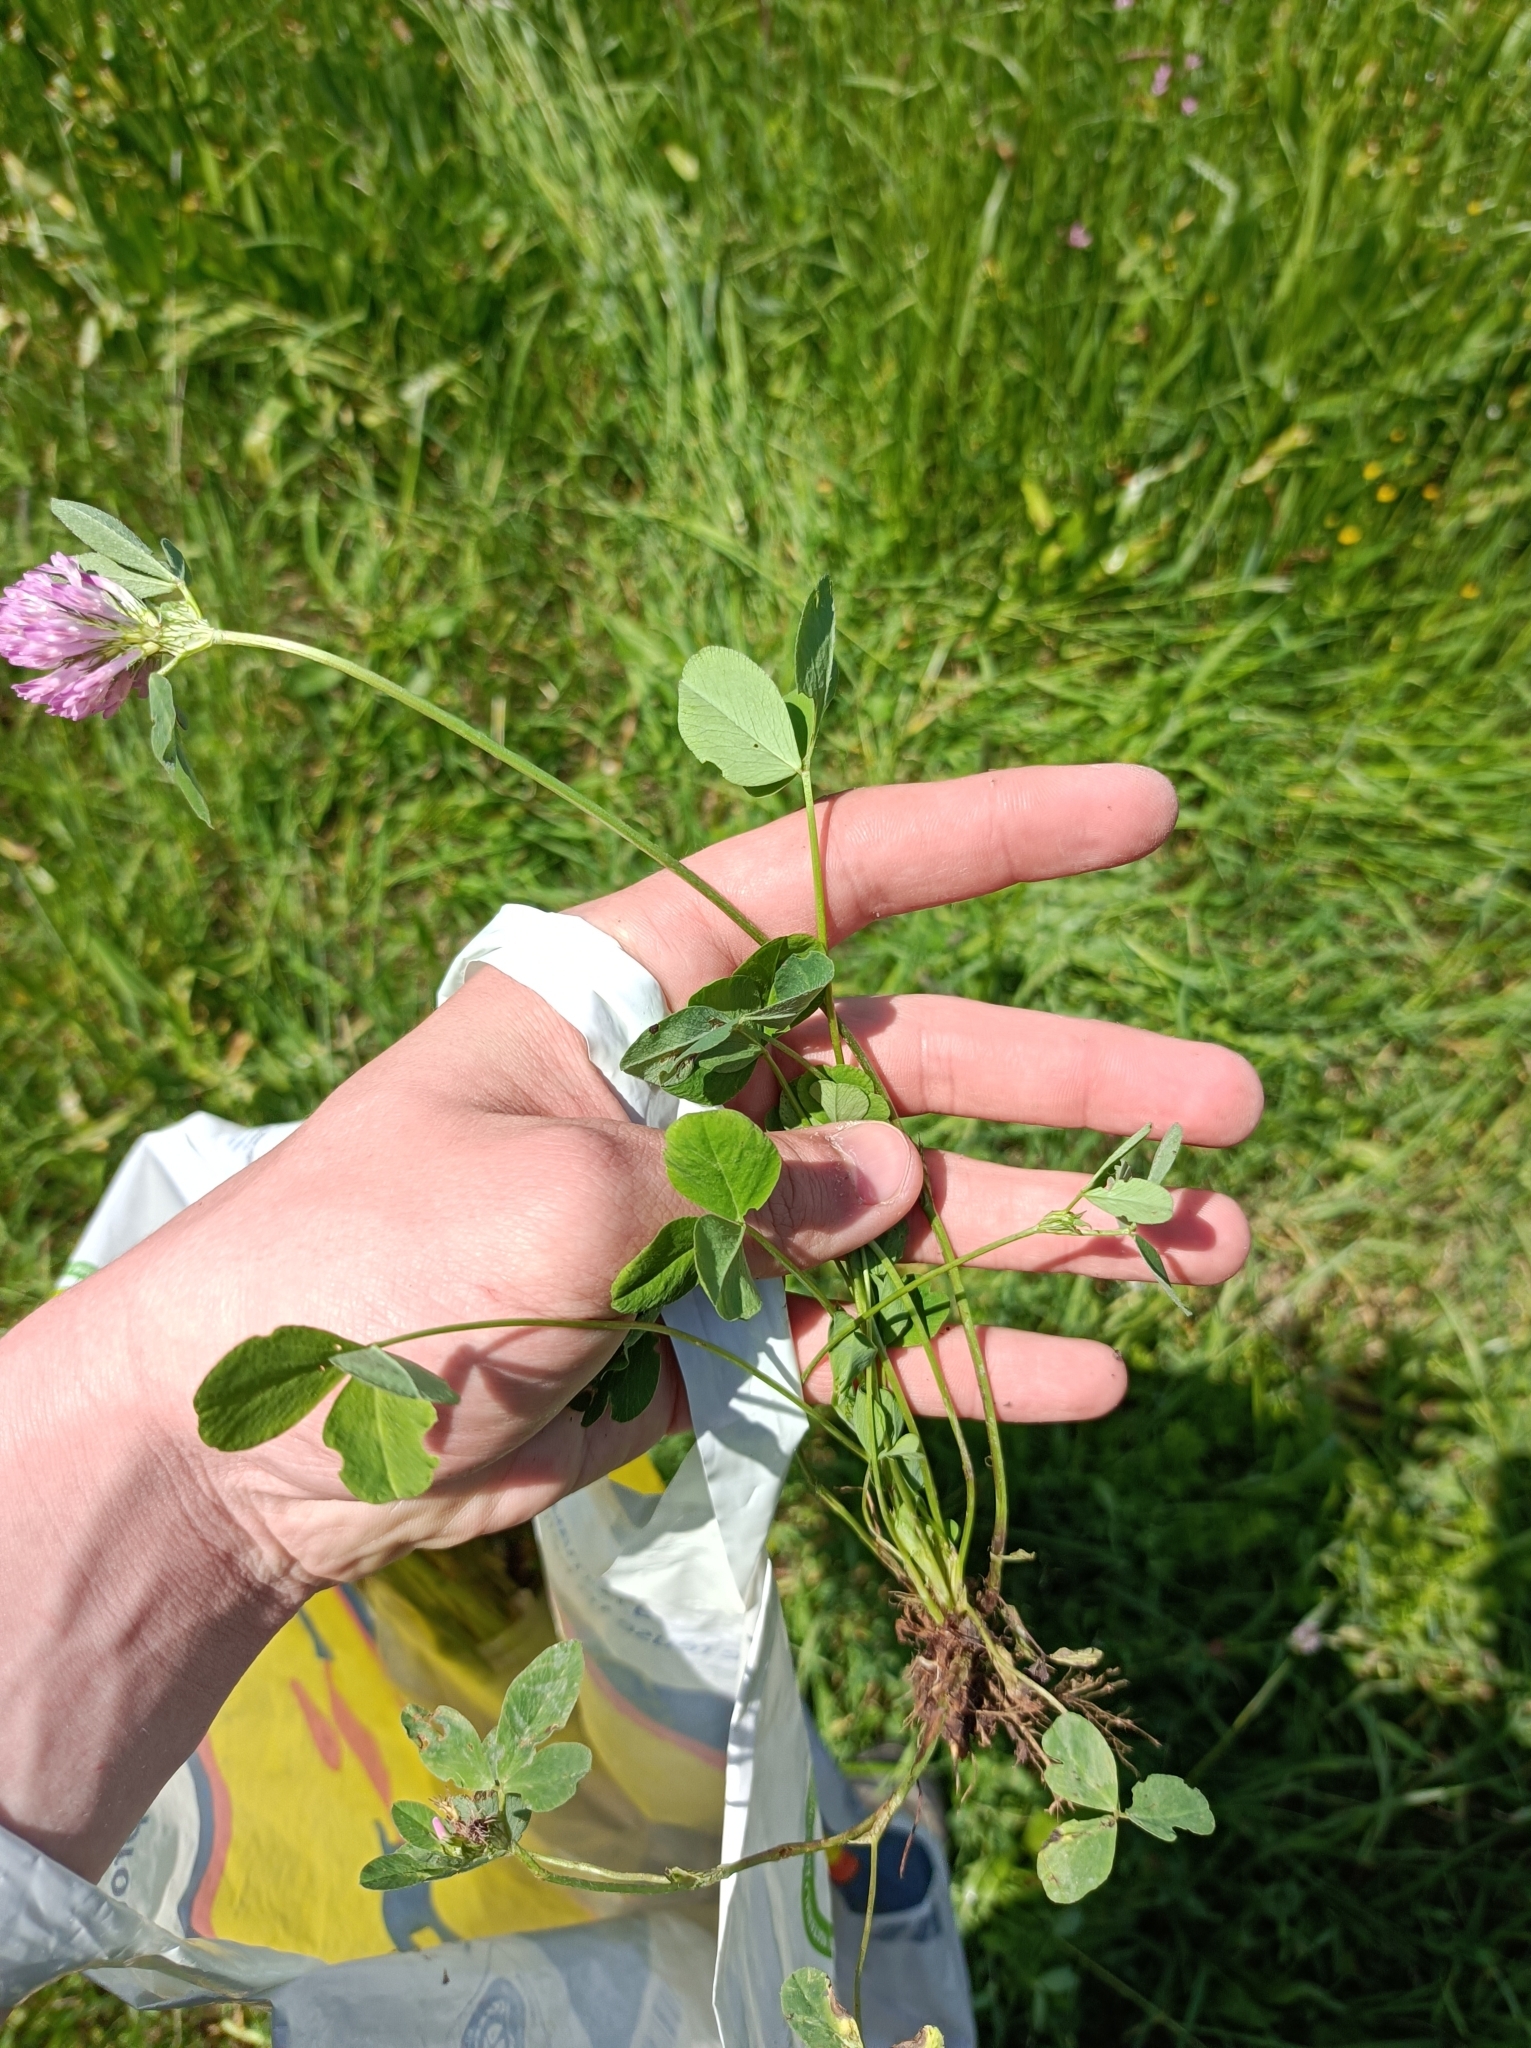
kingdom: Plantae
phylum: Tracheophyta
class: Magnoliopsida
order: Fabales
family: Fabaceae
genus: Trifolium
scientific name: Trifolium pratense
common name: Red clover
